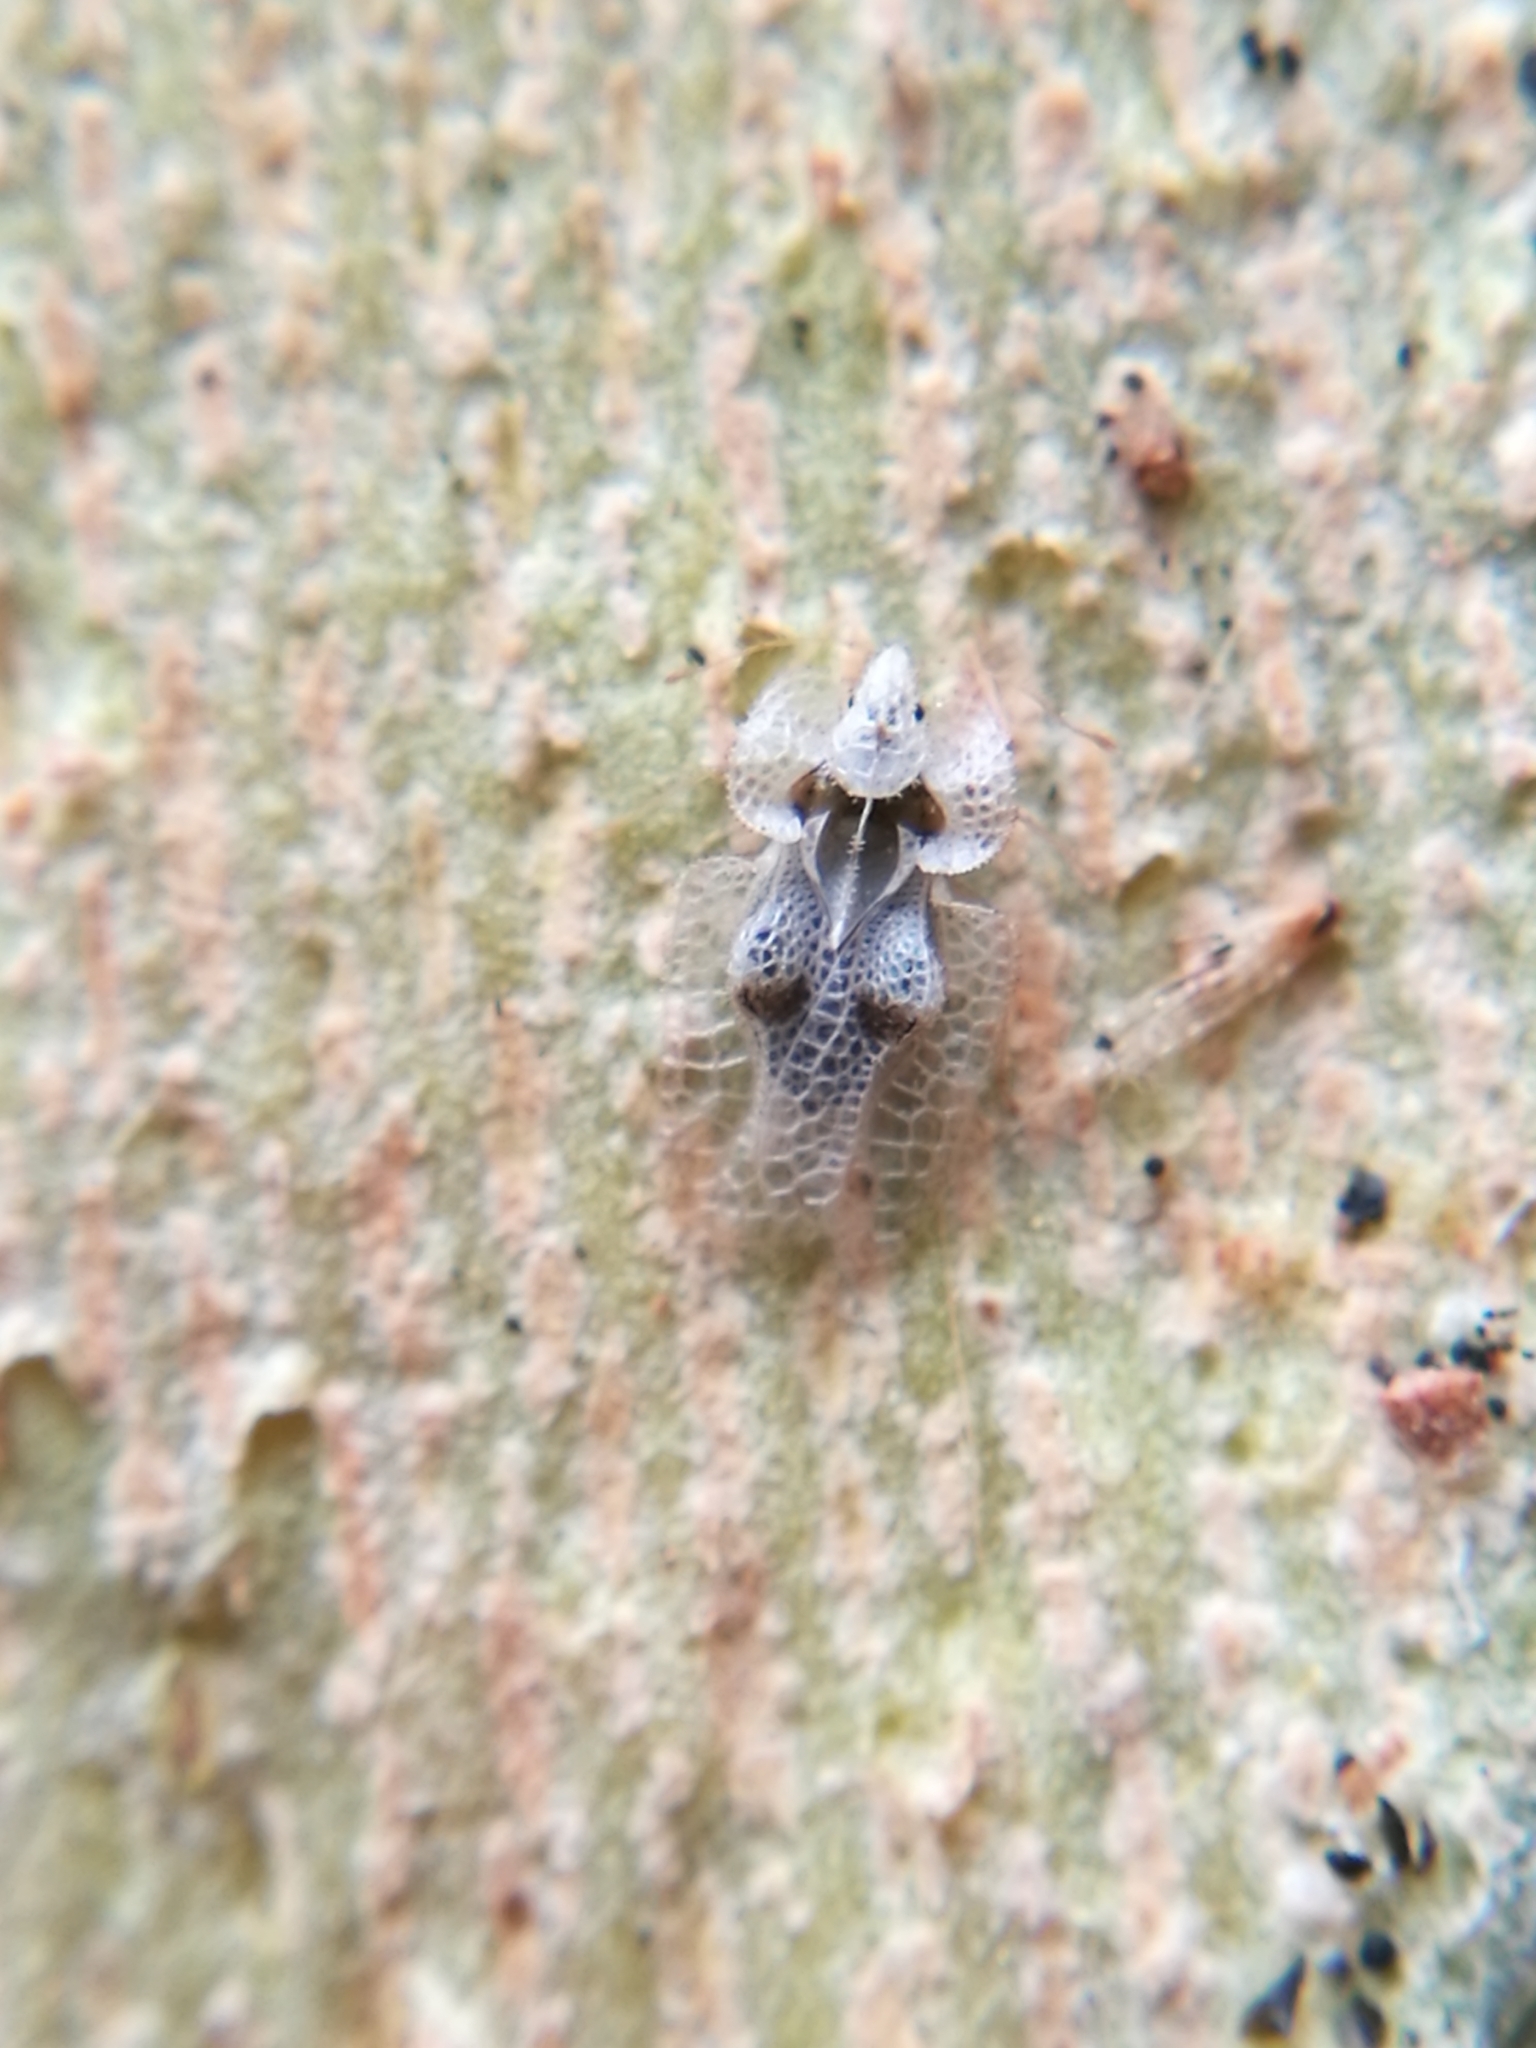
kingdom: Animalia
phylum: Arthropoda
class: Insecta
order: Hemiptera
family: Tingidae
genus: Corythucha
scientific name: Corythucha ciliata
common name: Sycamore lace bug
